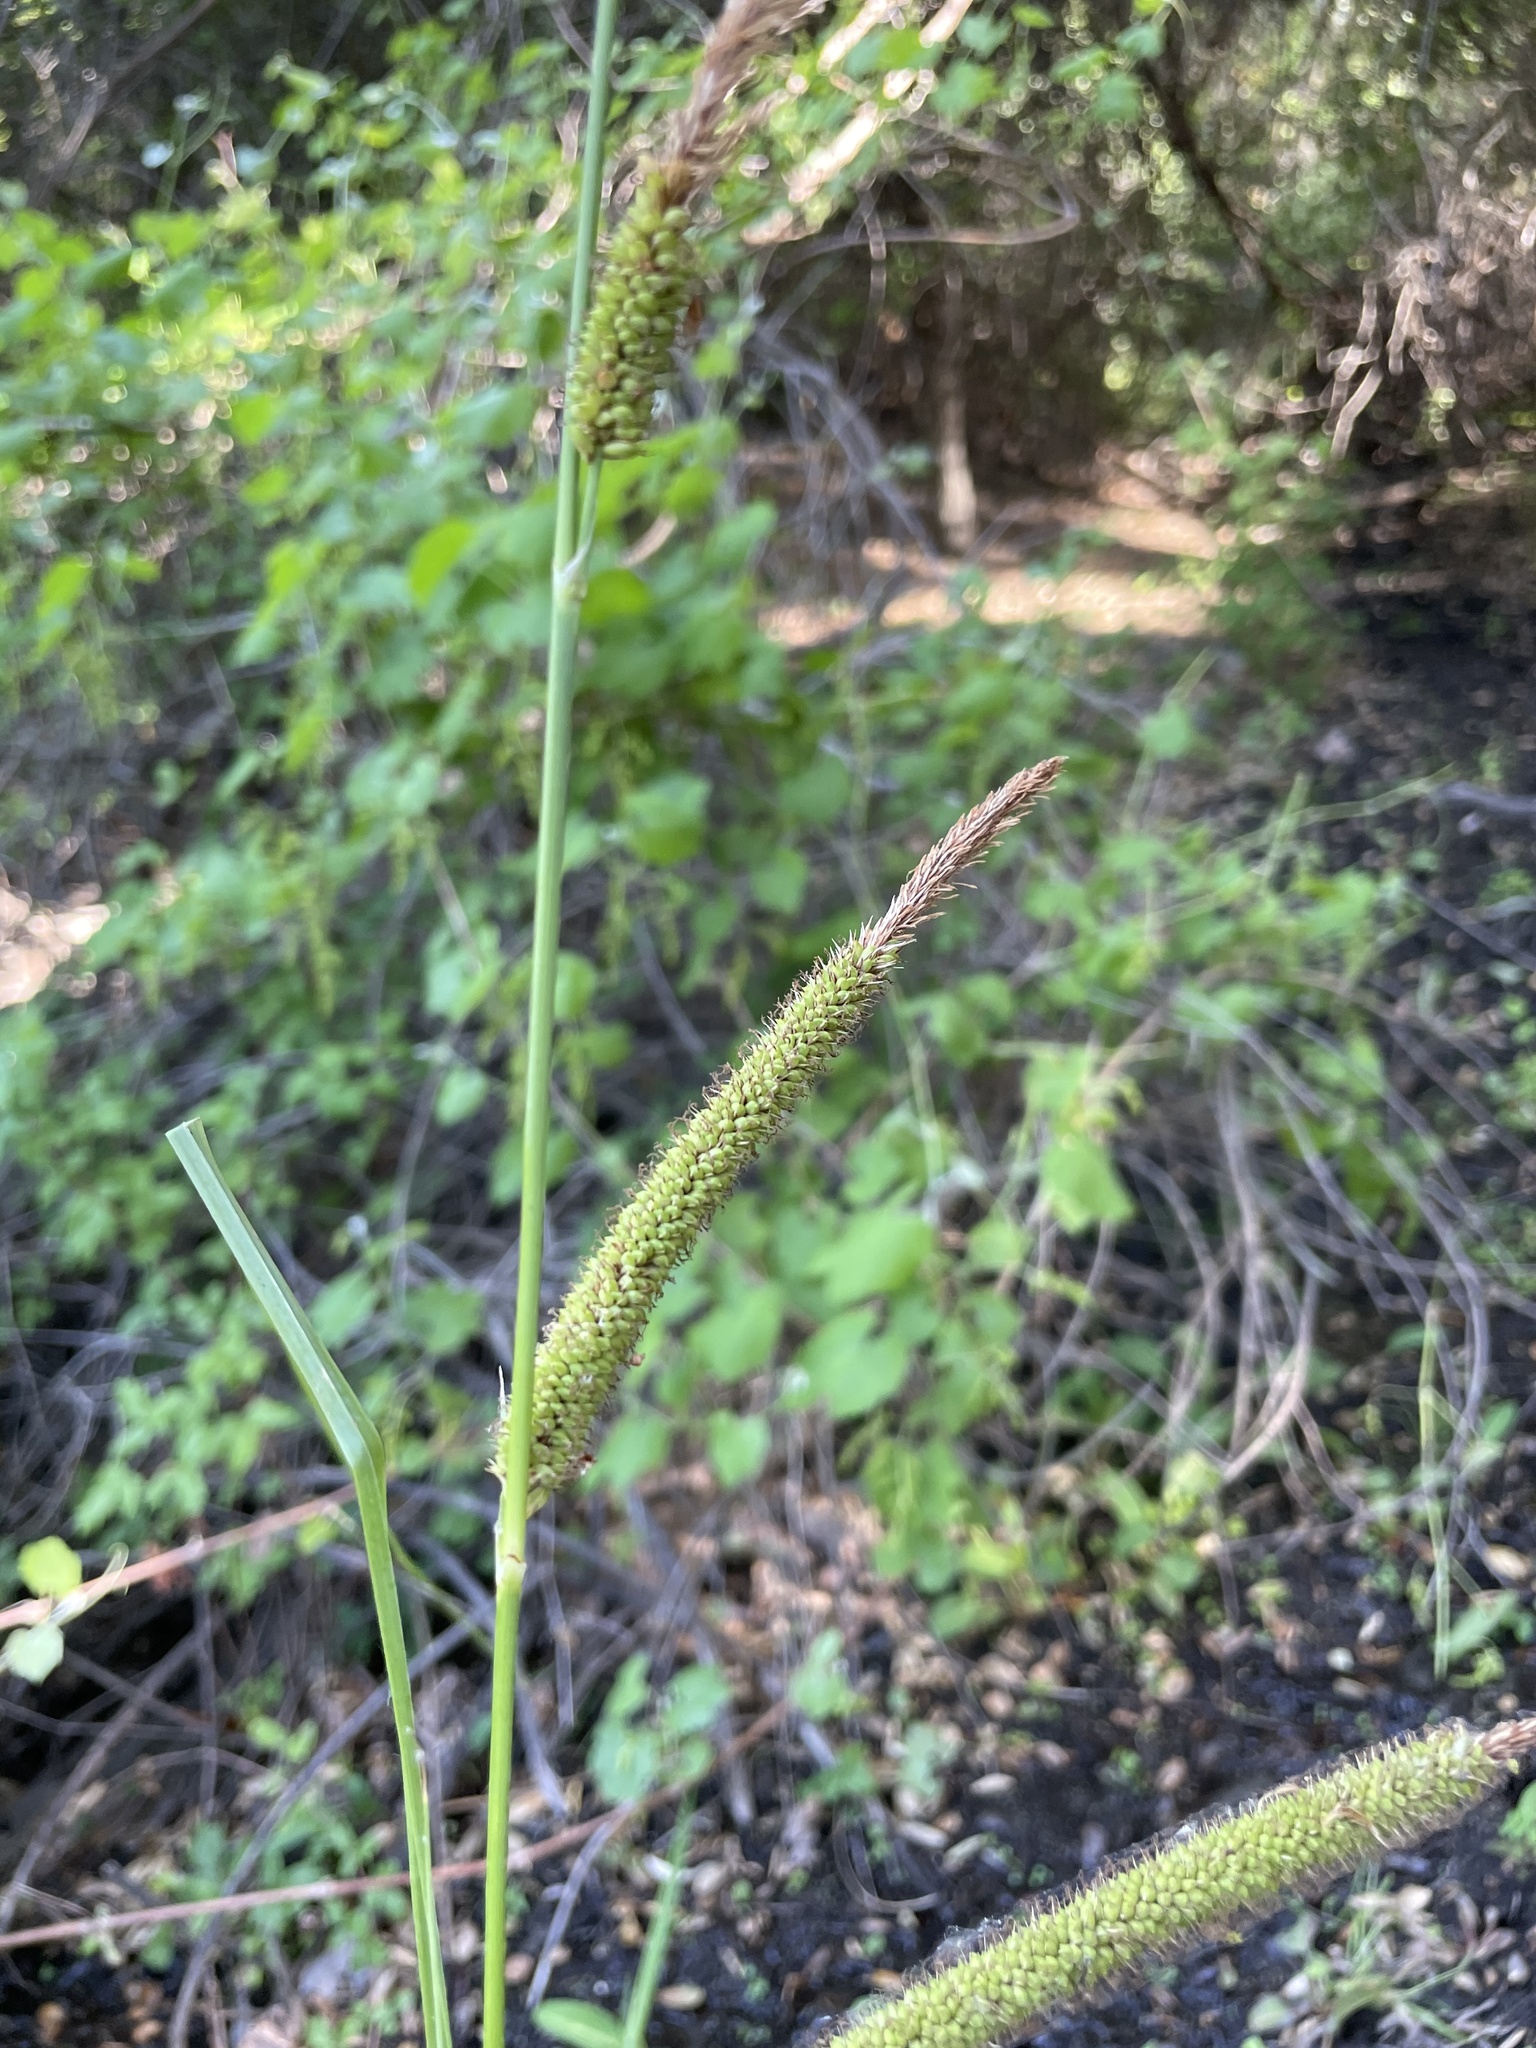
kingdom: Plantae
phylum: Tracheophyta
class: Liliopsida
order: Poales
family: Cyperaceae
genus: Carex
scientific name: Carex spissa
